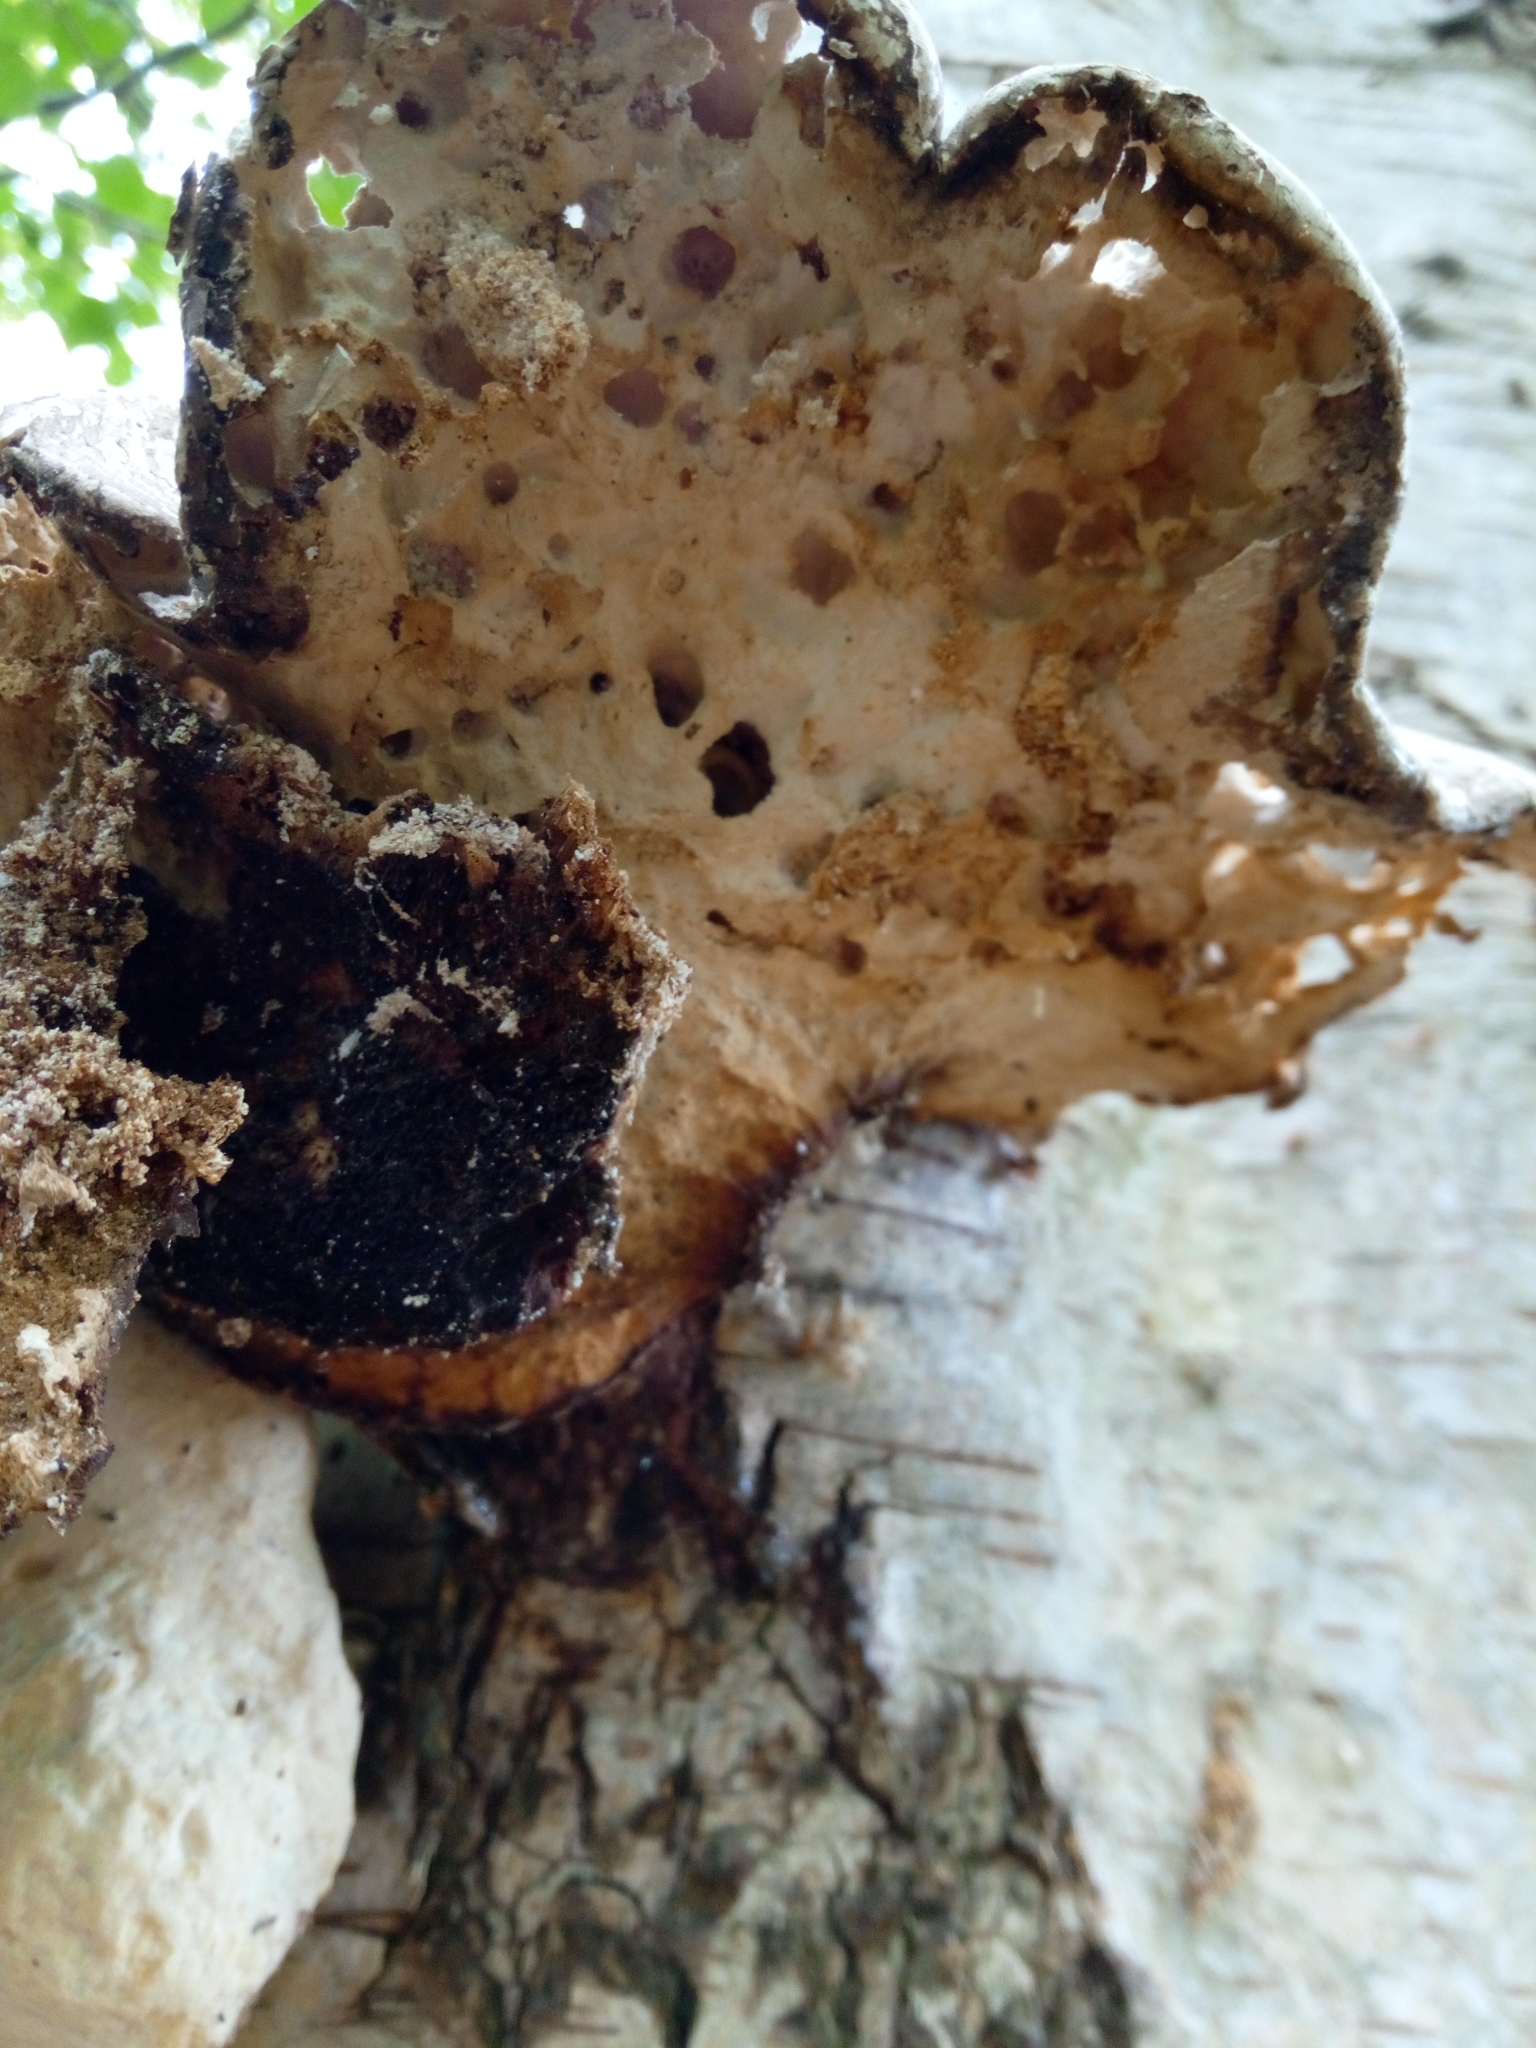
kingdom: Fungi
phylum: Basidiomycota
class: Agaricomycetes
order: Polyporales
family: Fomitopsidaceae
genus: Fomitopsis
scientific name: Fomitopsis betulina
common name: Birch polypore
